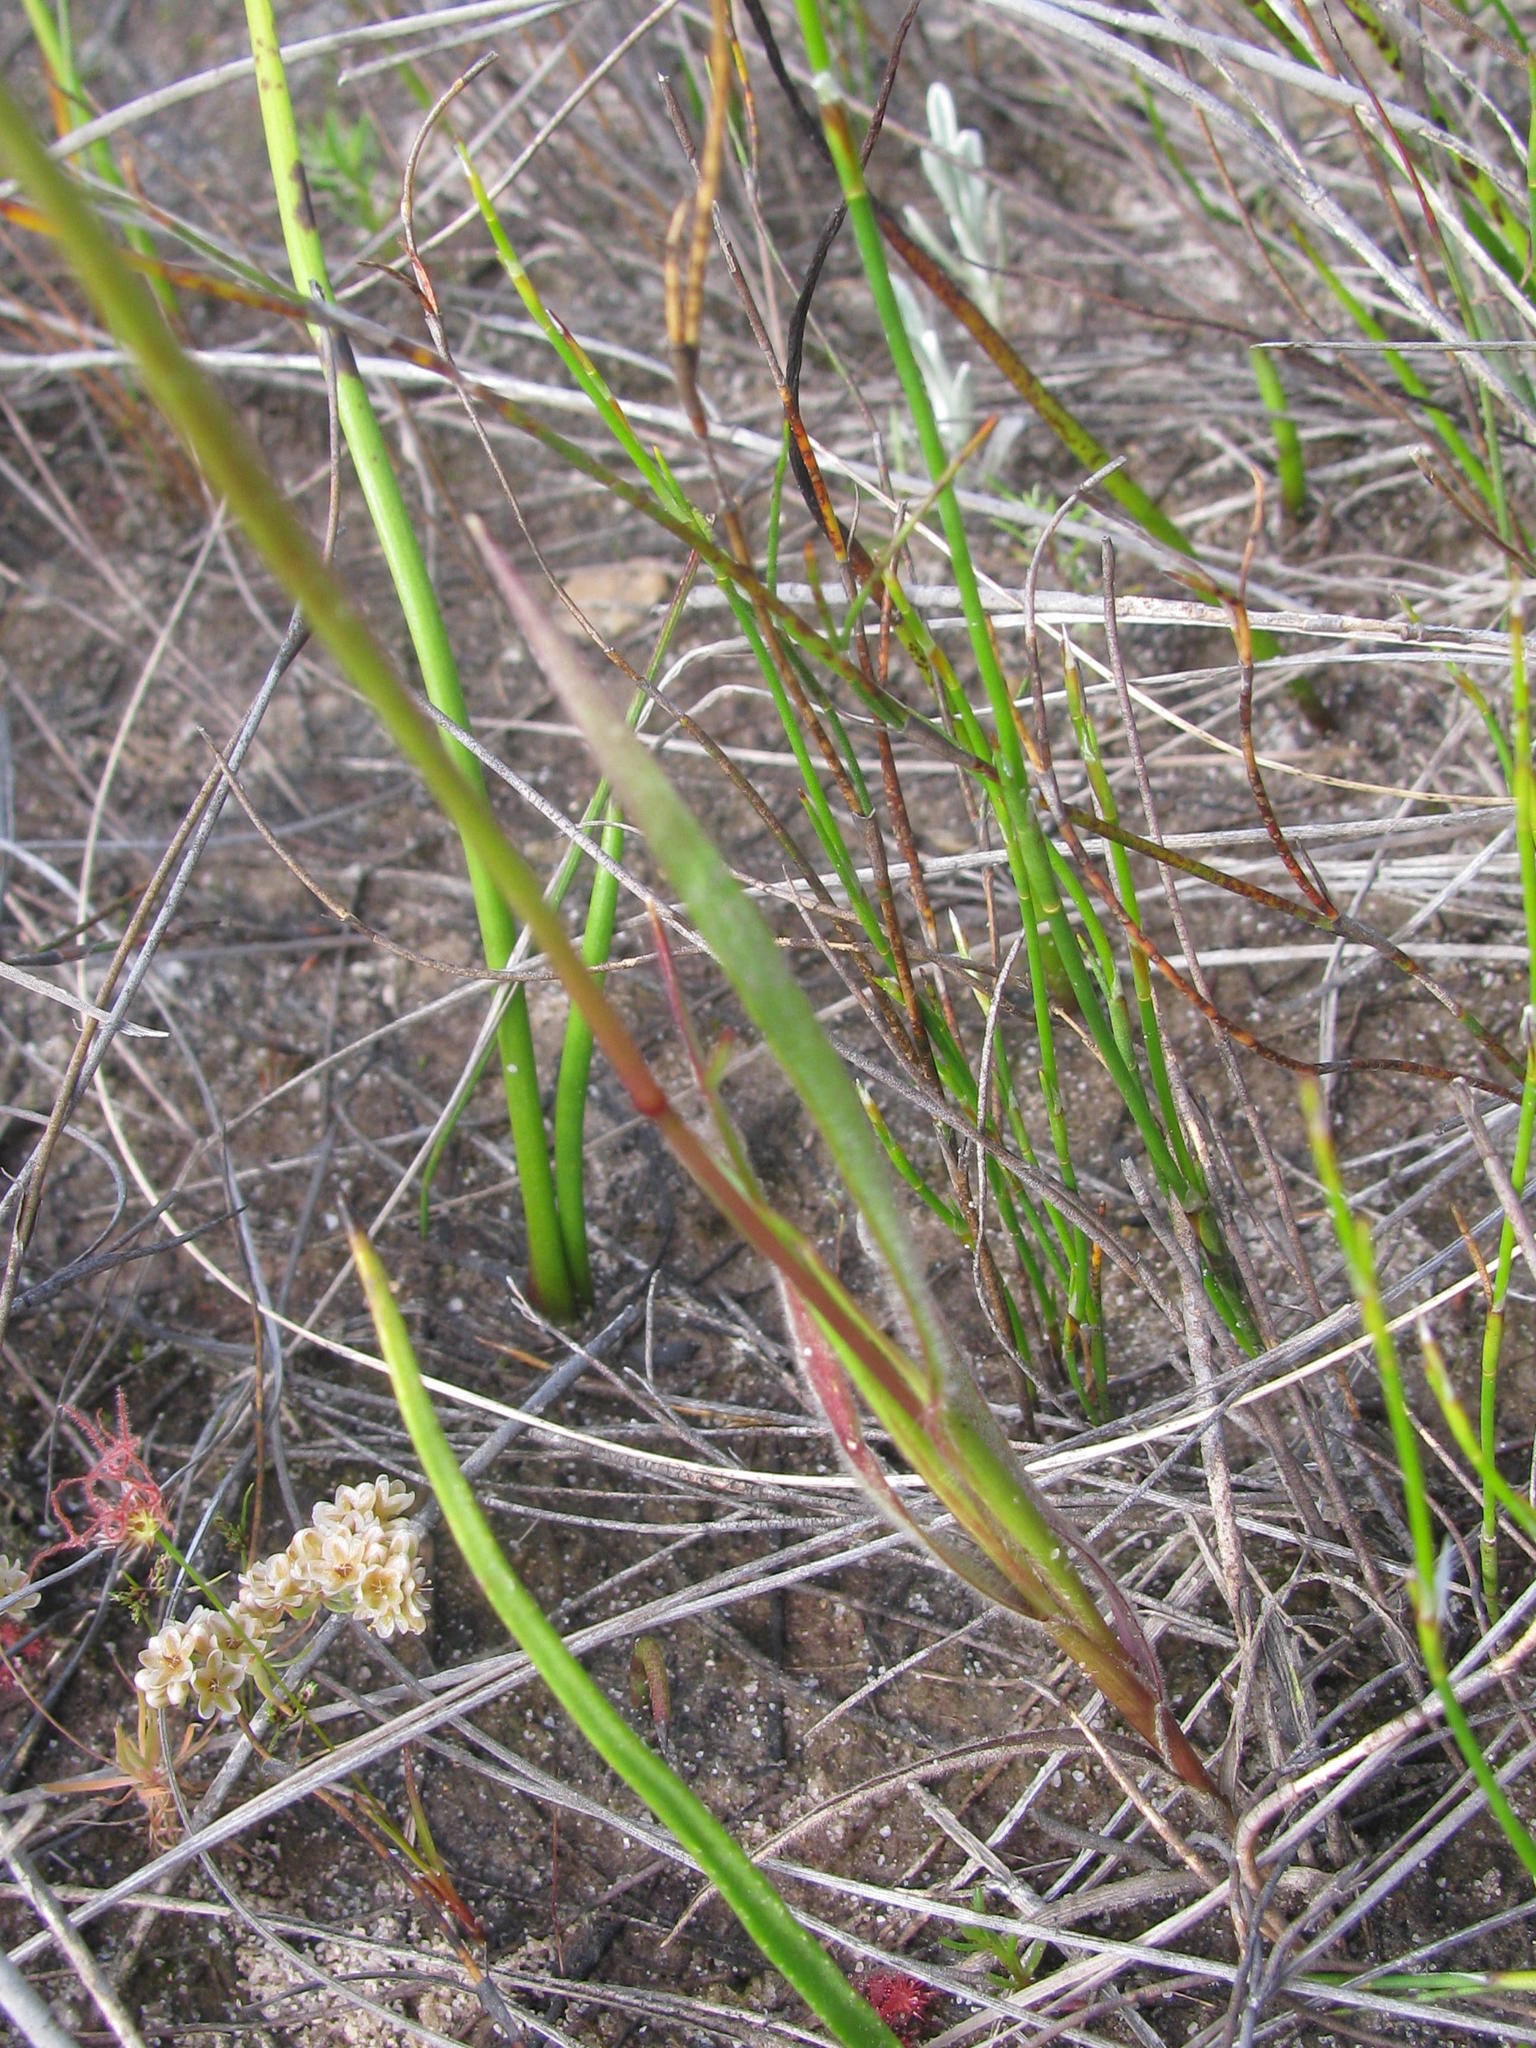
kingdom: Plantae
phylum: Tracheophyta
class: Liliopsida
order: Poales
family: Poaceae
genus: Pentameris
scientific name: Pentameris triseta
